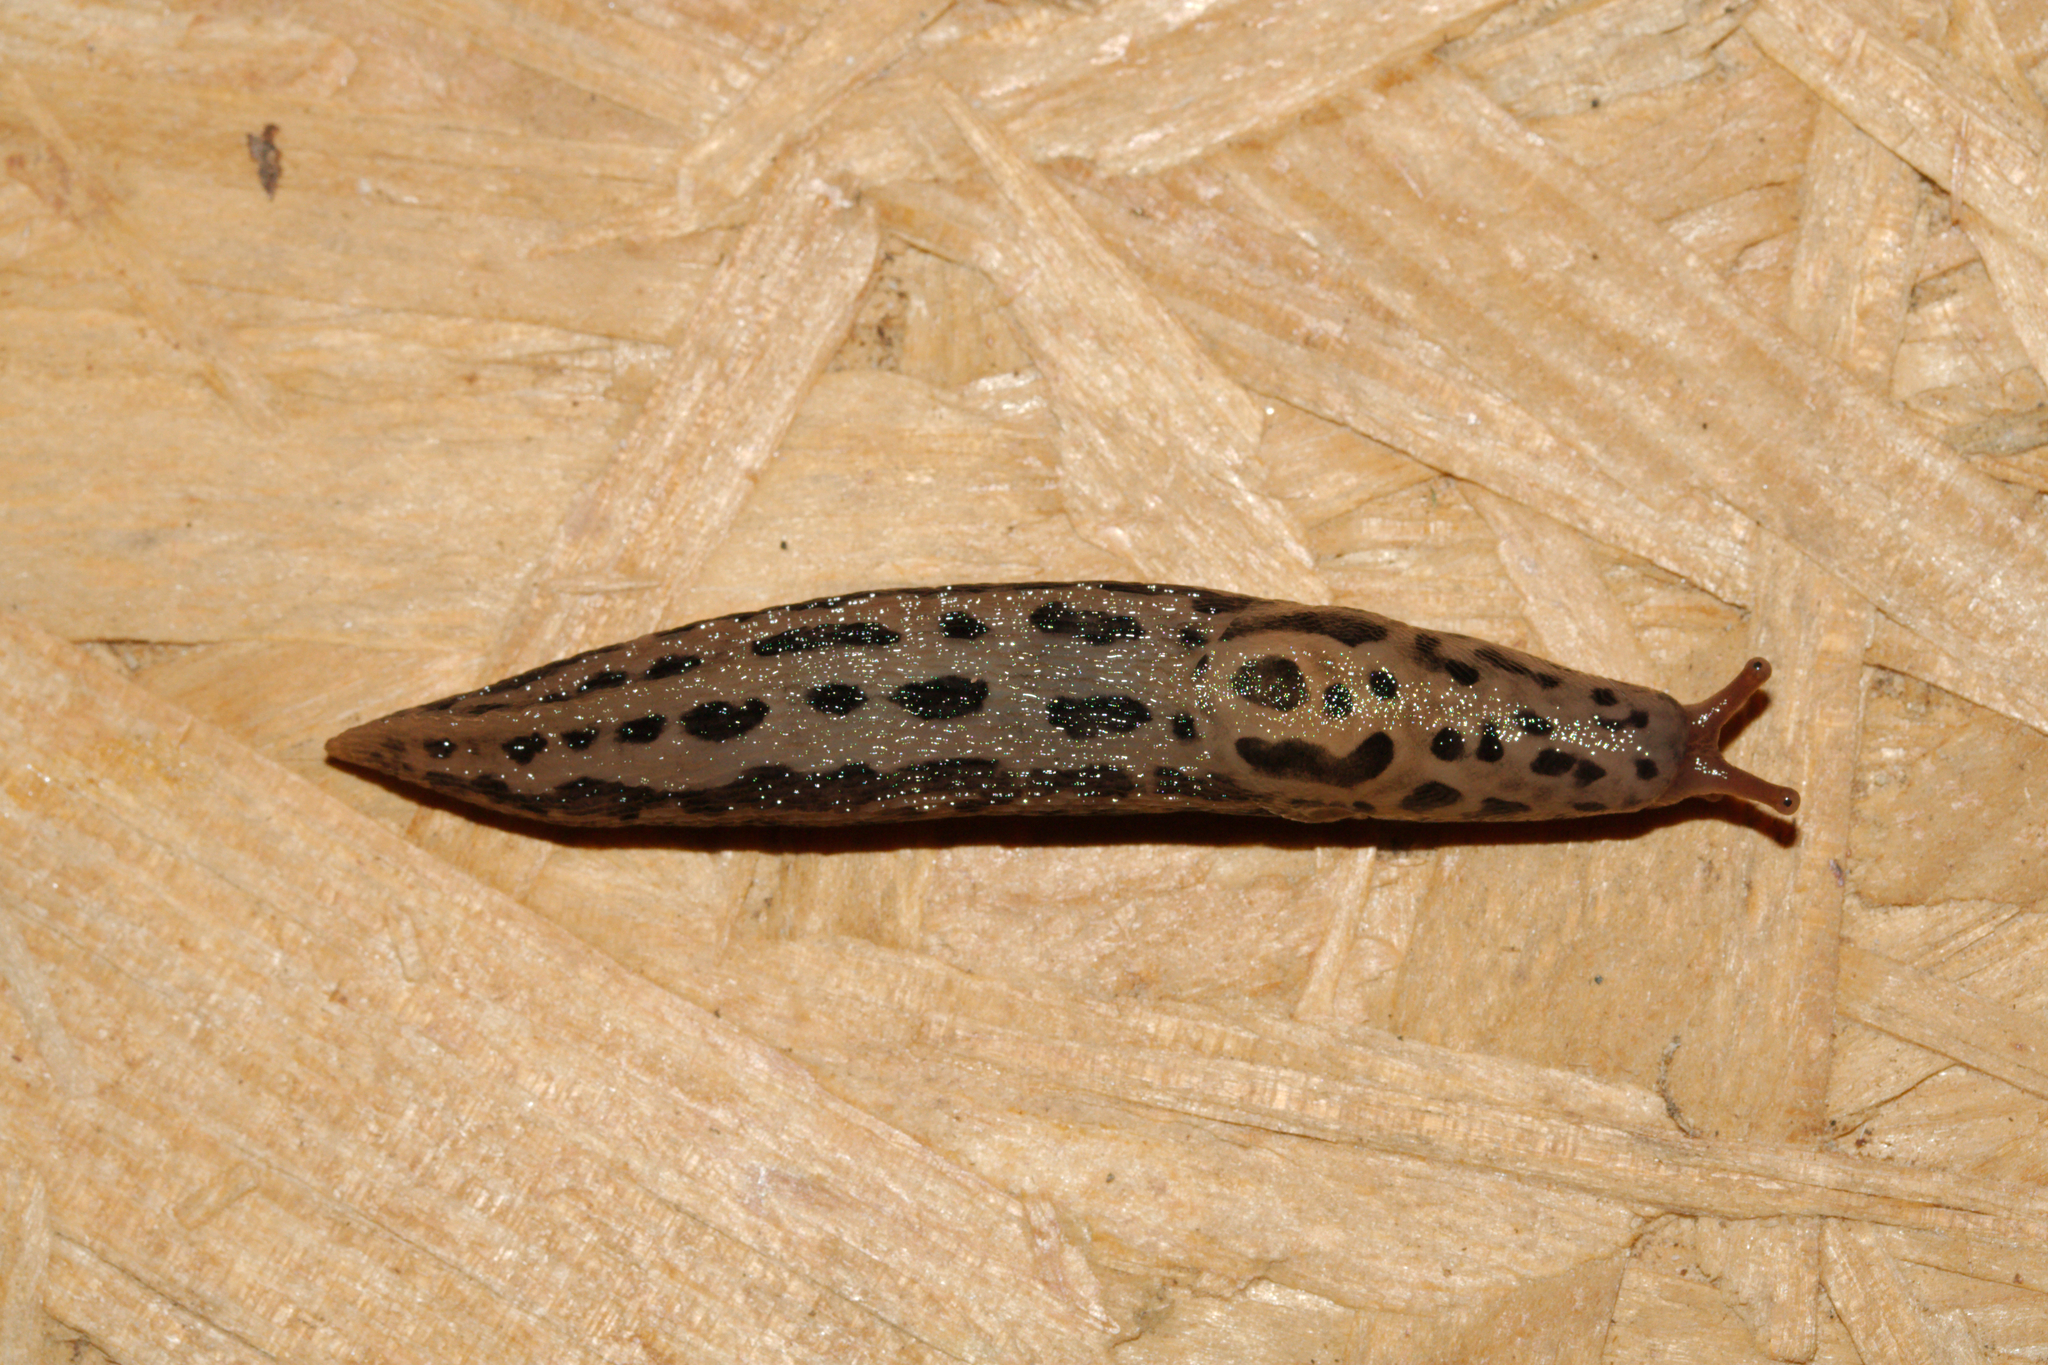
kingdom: Animalia
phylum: Mollusca
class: Gastropoda
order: Stylommatophora
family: Limacidae
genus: Limax
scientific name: Limax maximus
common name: Great grey slug
